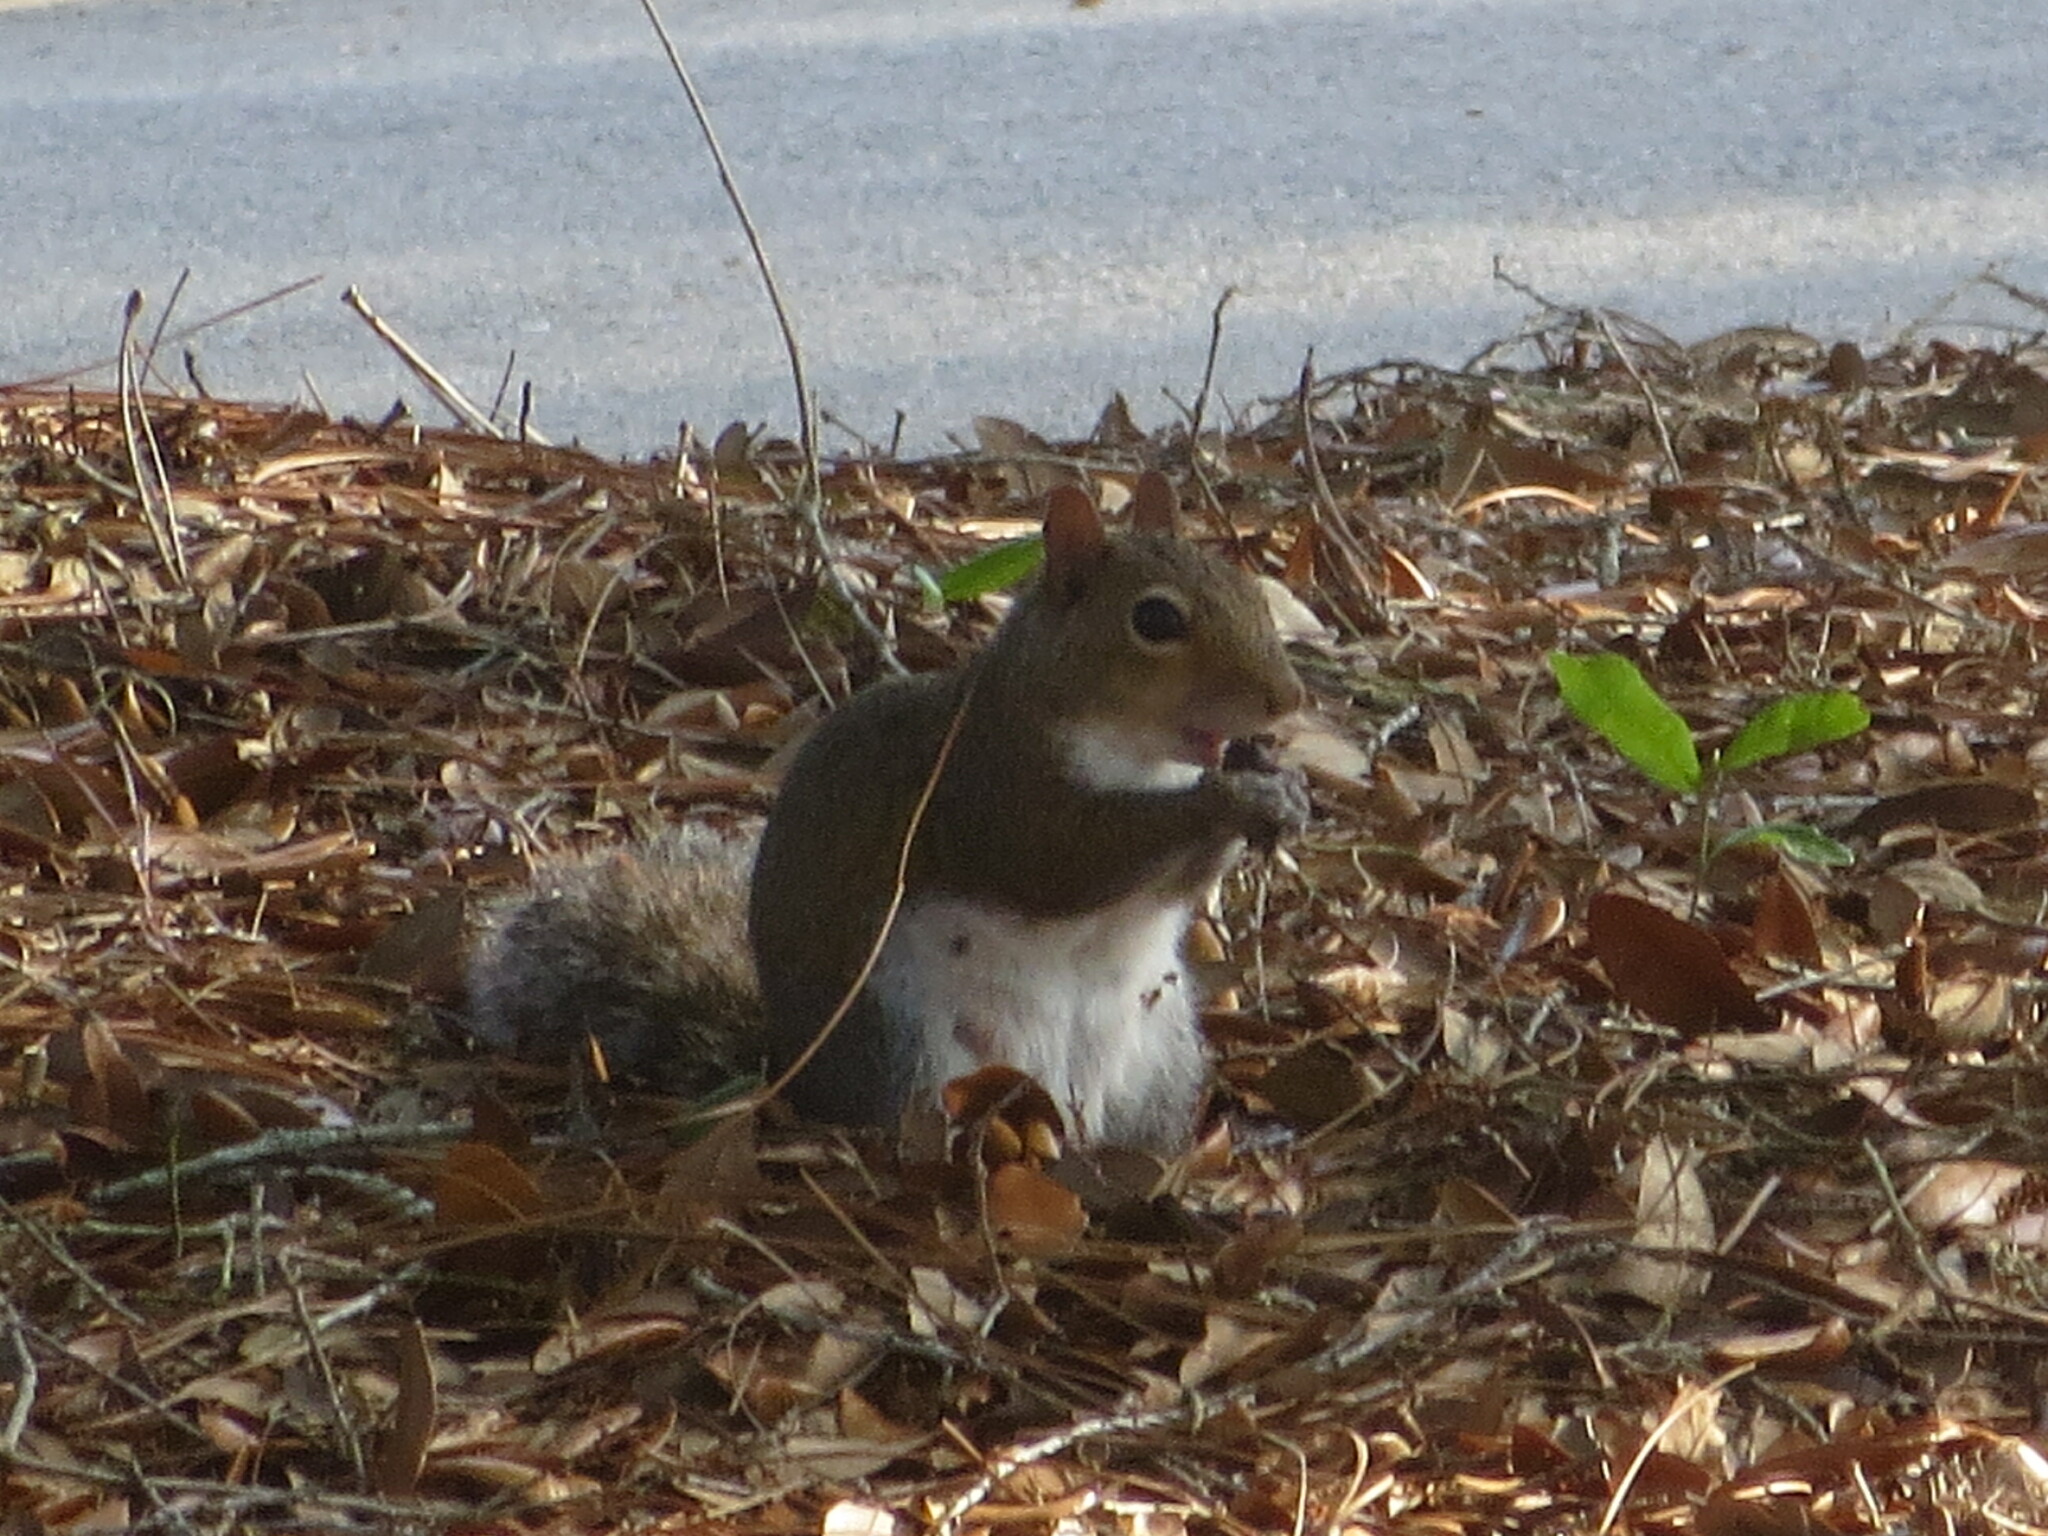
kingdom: Animalia
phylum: Chordata
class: Mammalia
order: Rodentia
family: Sciuridae
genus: Sciurus
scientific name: Sciurus carolinensis
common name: Eastern gray squirrel
